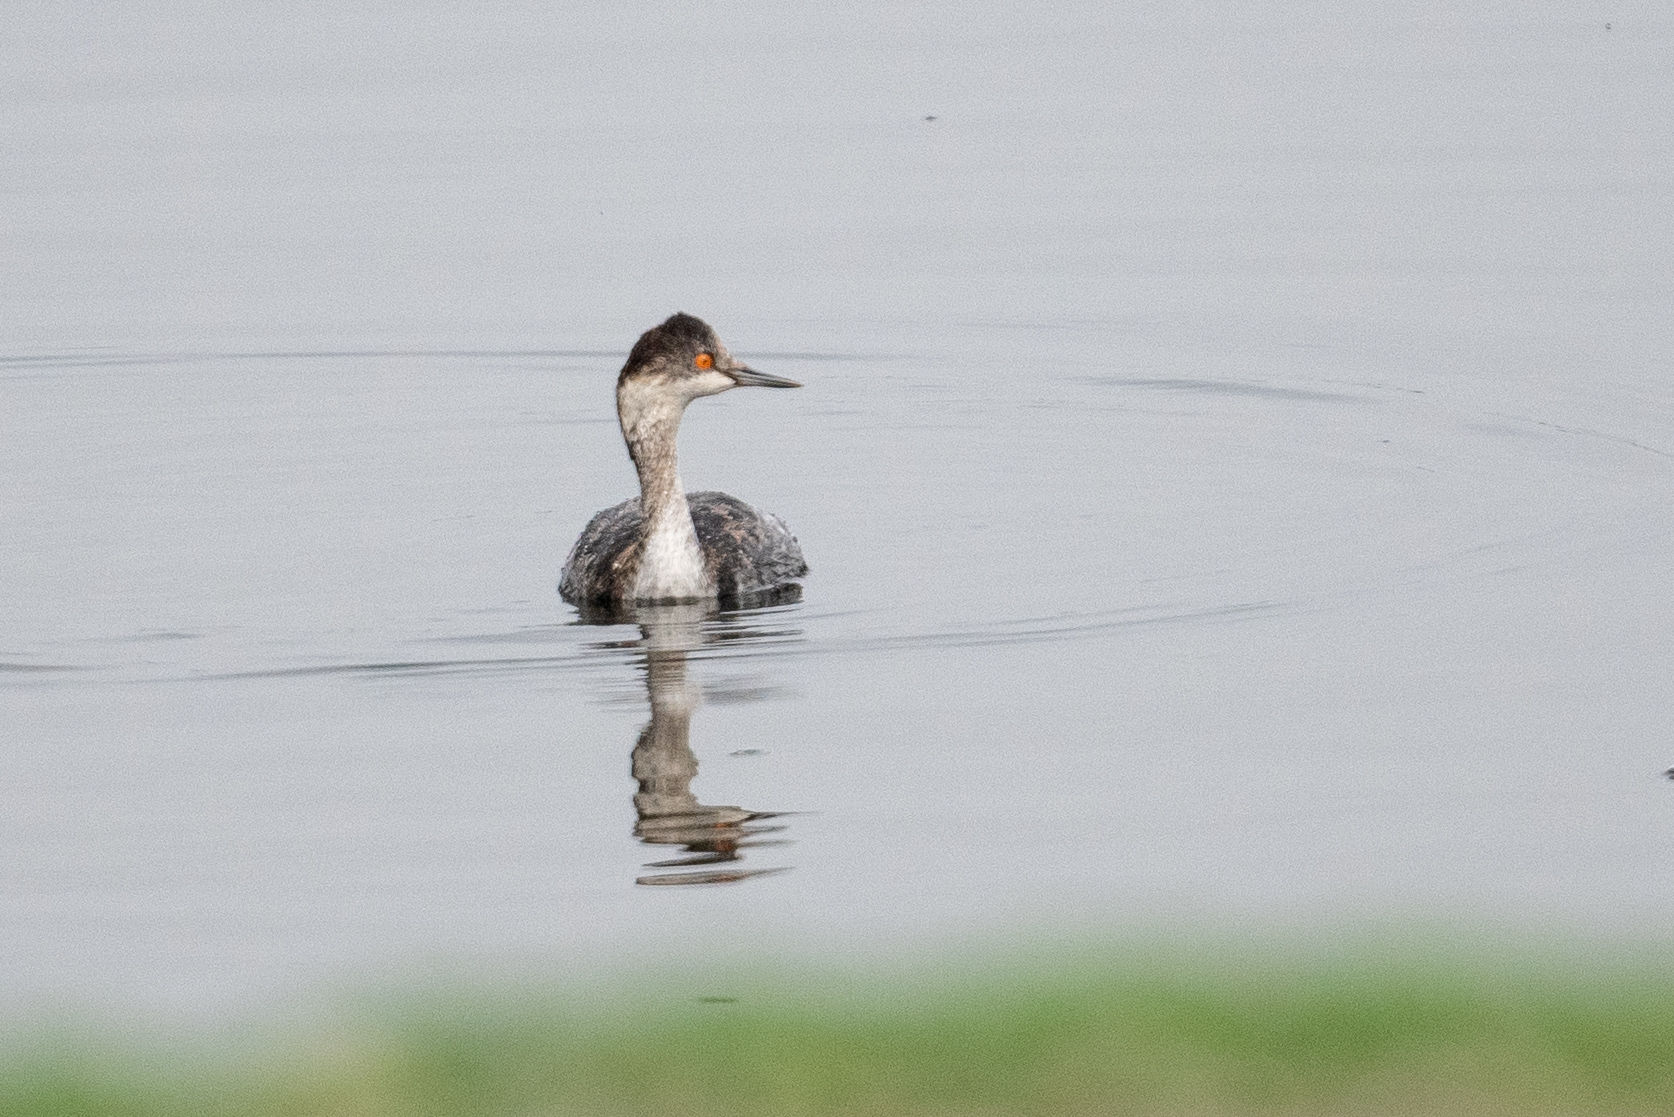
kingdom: Animalia
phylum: Chordata
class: Aves
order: Podicipediformes
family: Podicipedidae
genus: Podiceps
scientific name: Podiceps nigricollis
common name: Black-necked grebe
